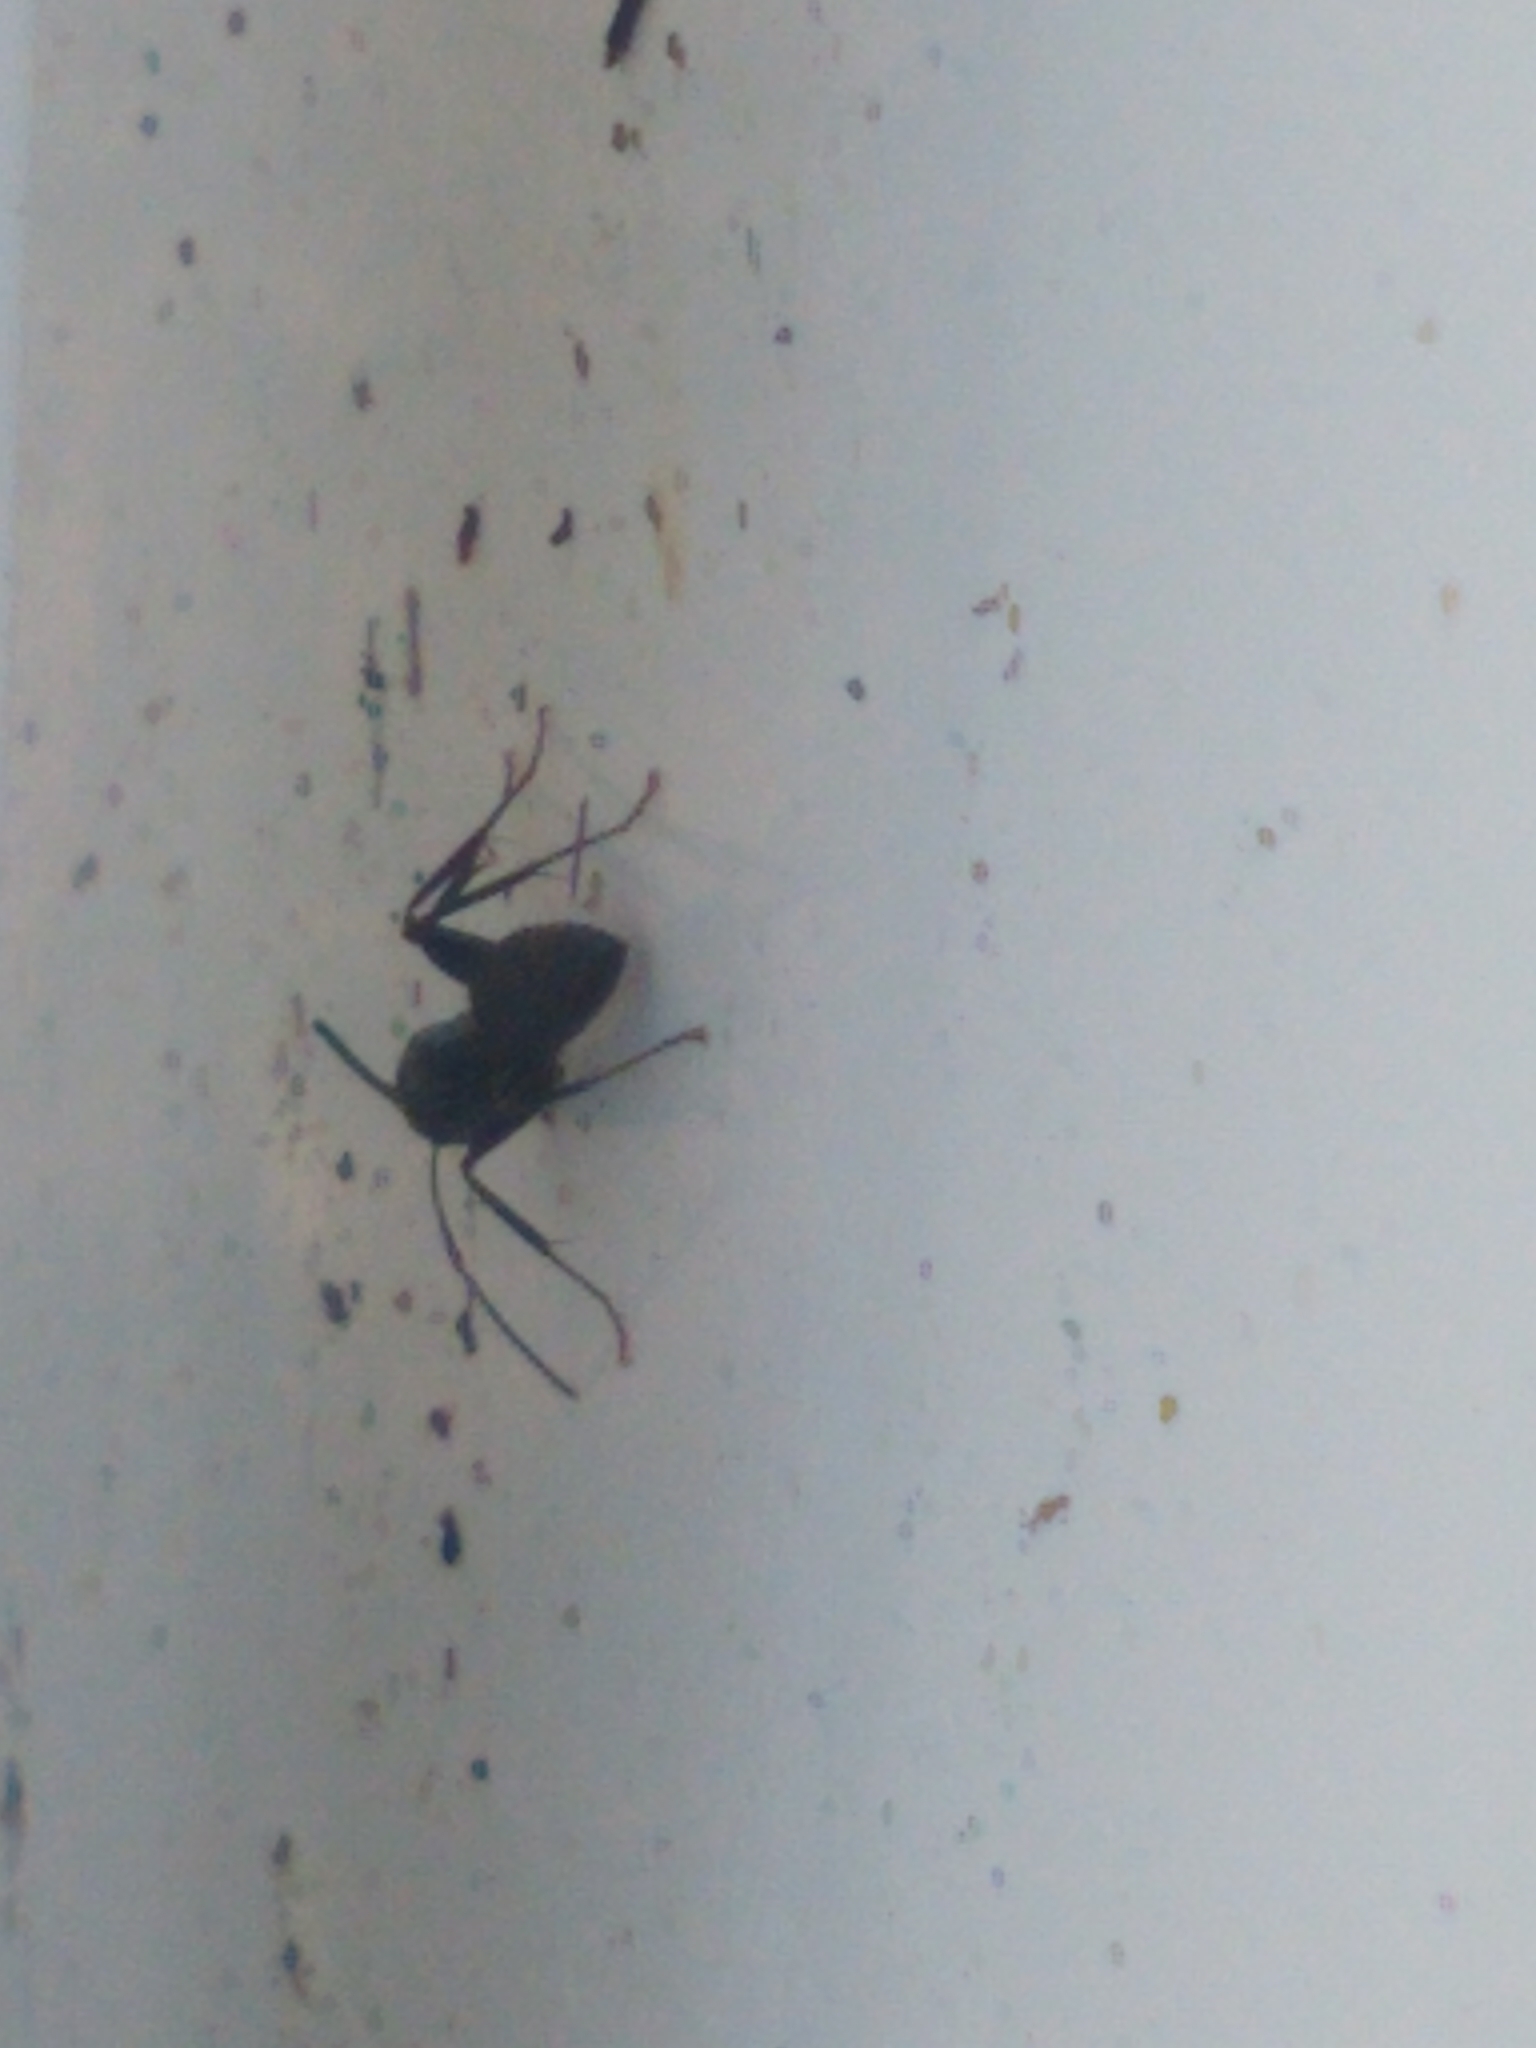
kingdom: Animalia
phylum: Arthropoda
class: Insecta
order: Hymenoptera
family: Formicidae
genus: Camponotus
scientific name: Camponotus pennsylvanicus
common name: Black carpenter ant
